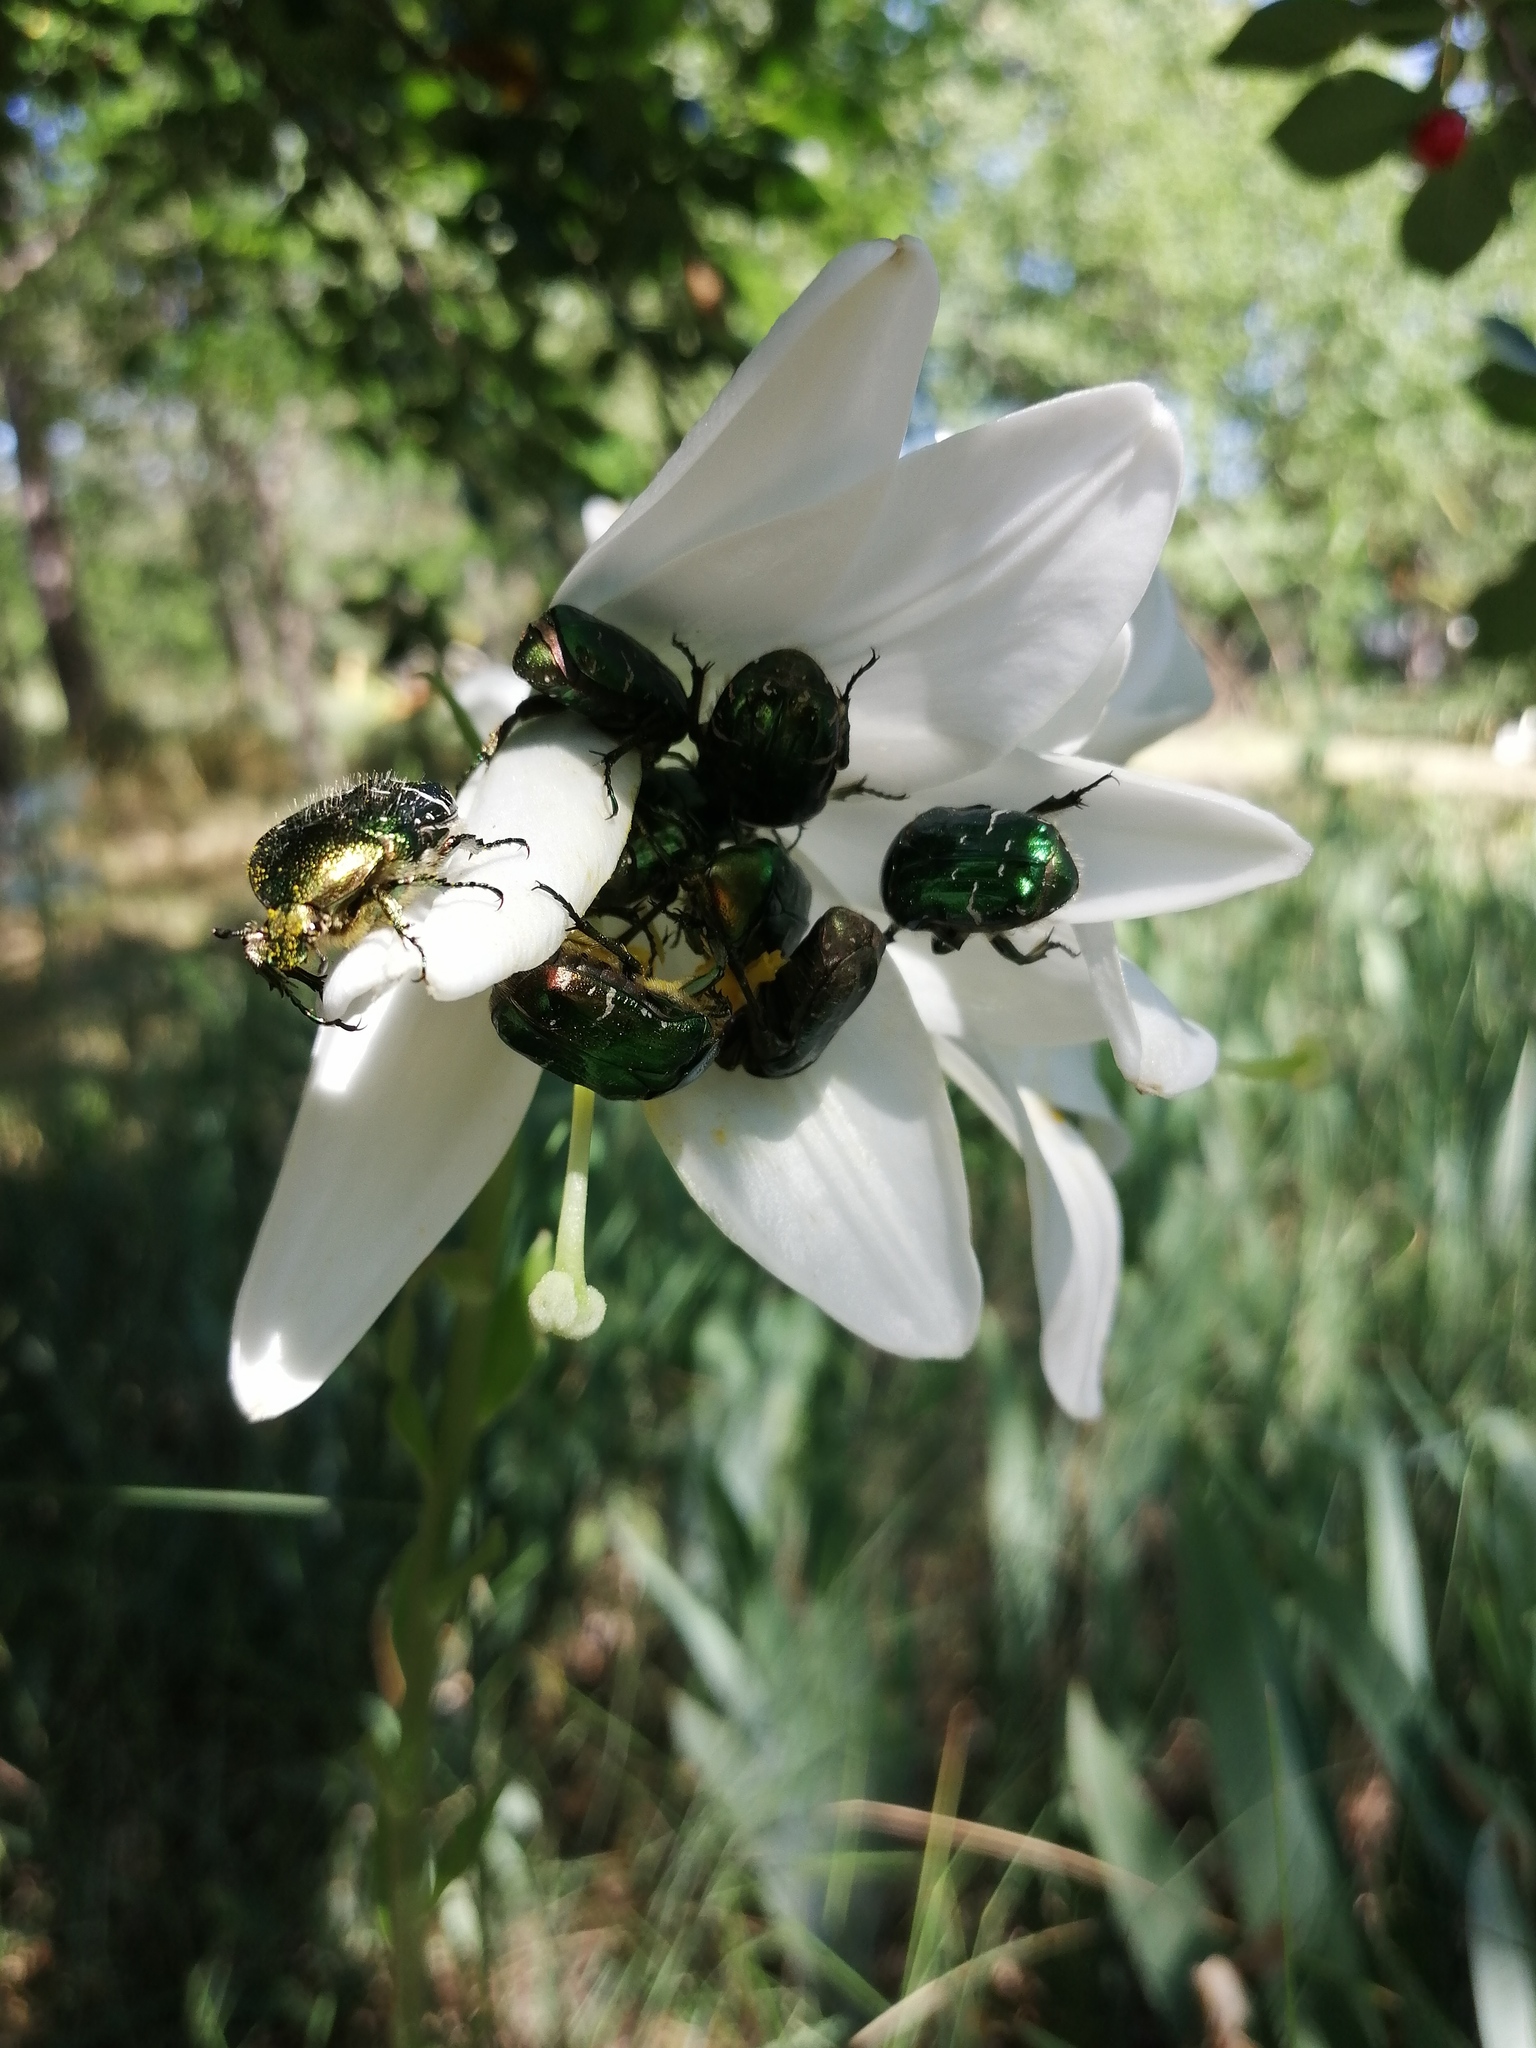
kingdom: Animalia
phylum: Arthropoda
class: Insecta
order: Coleoptera
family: Scarabaeidae
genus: Cetonia
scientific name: Cetonia aurata
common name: Rose chafer
